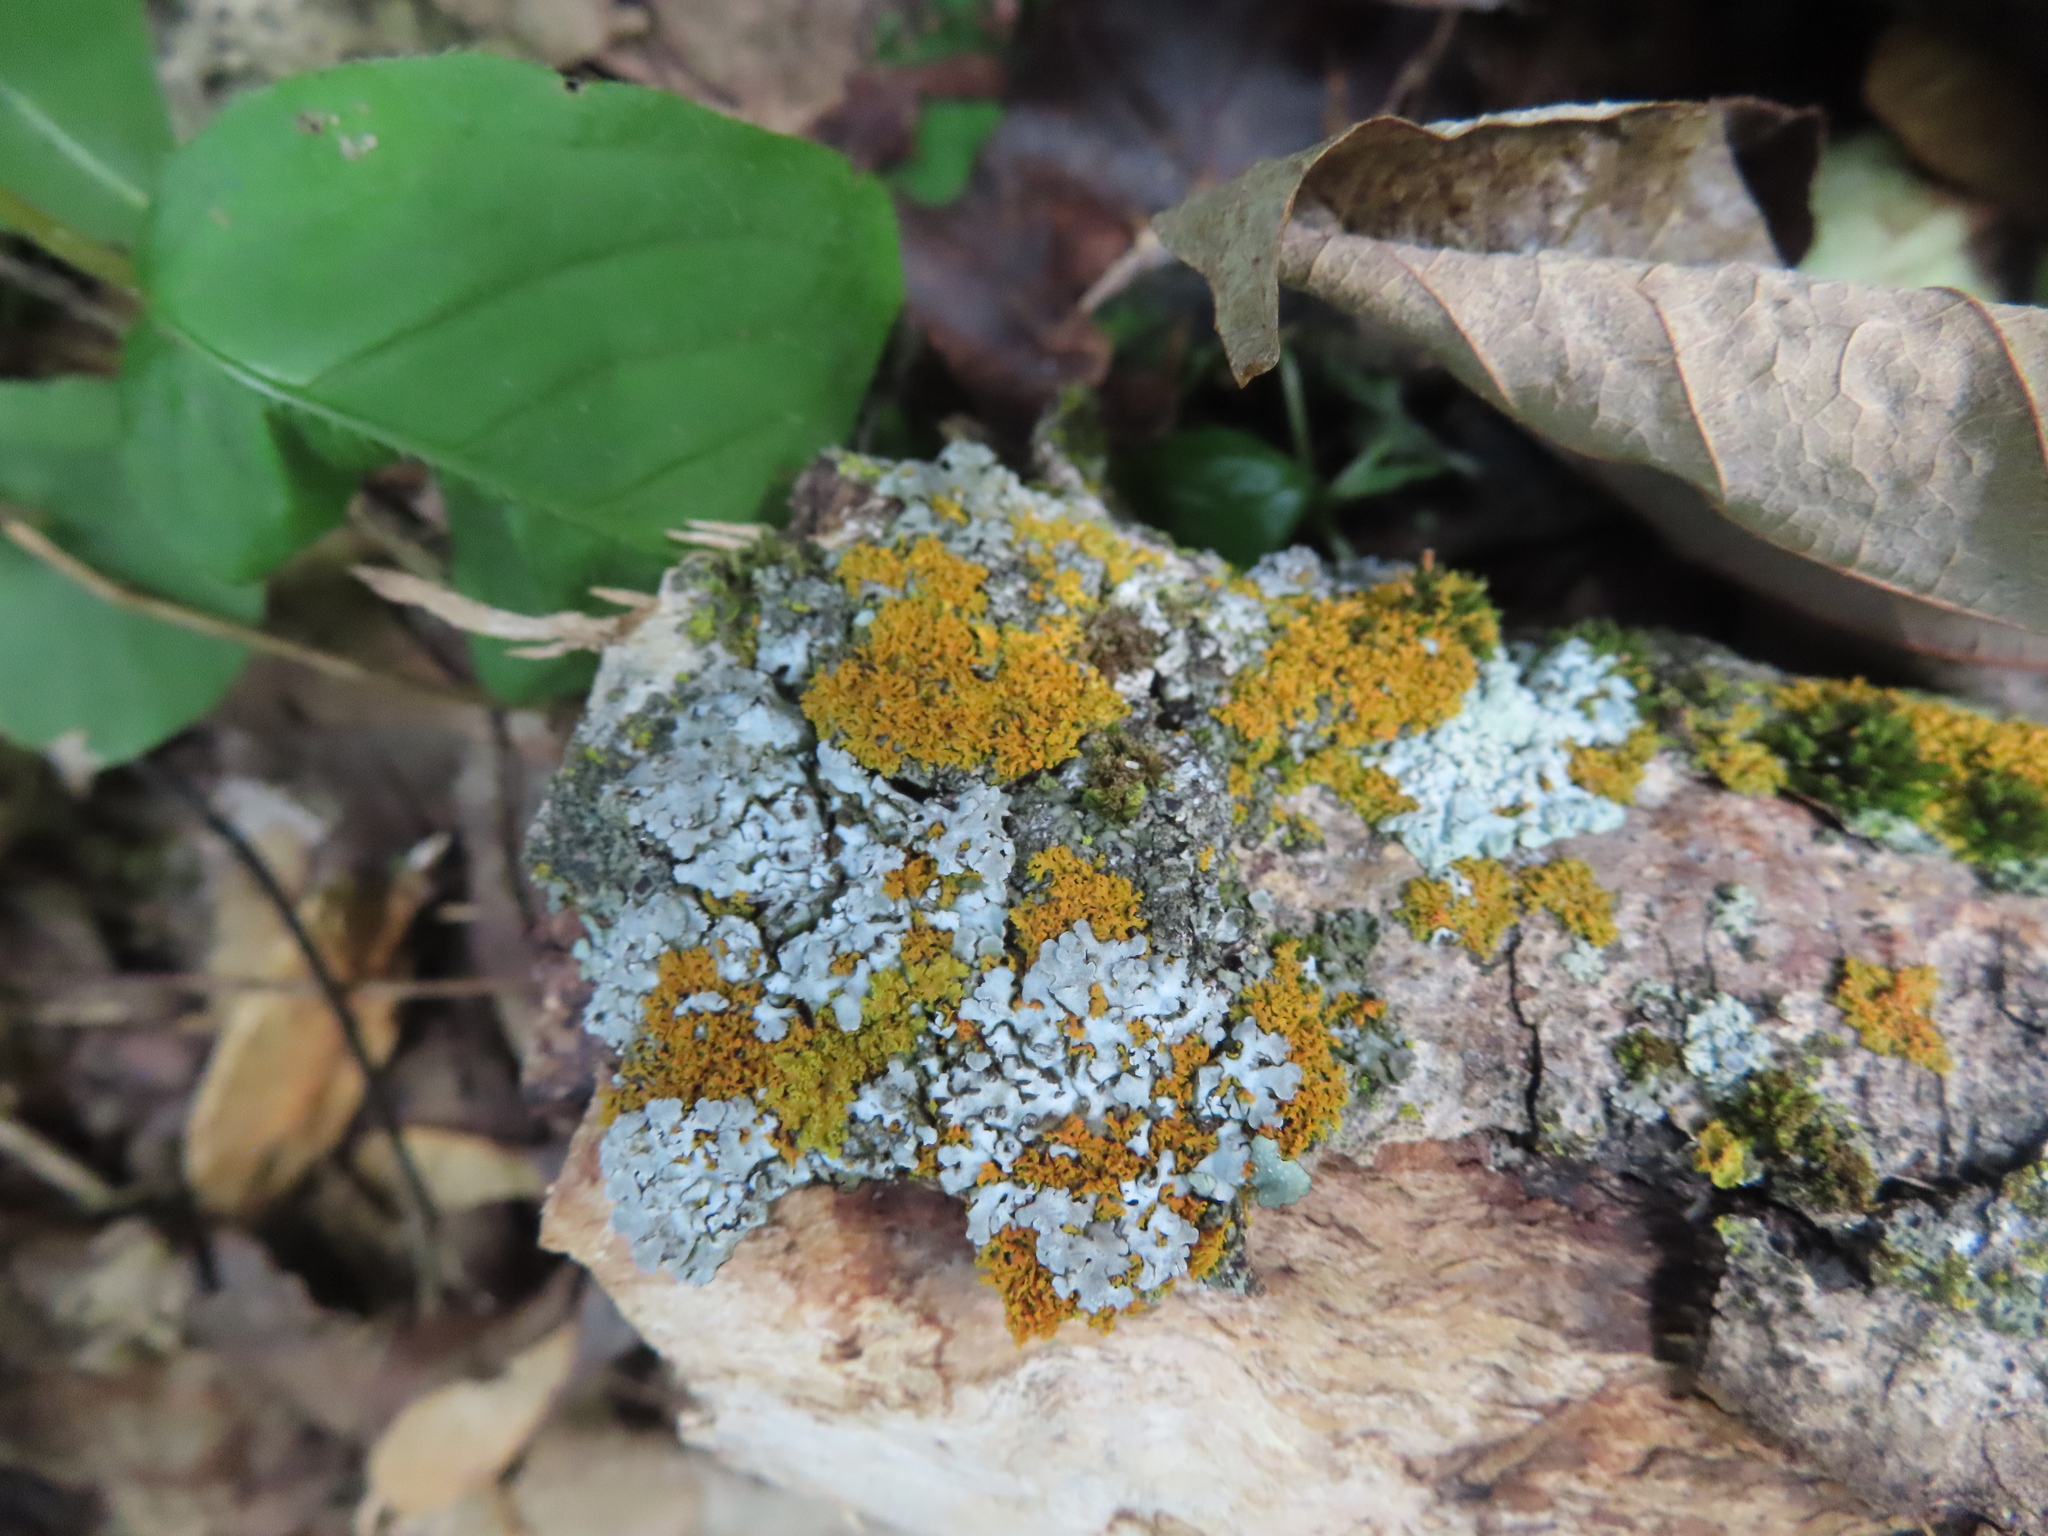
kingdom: Fungi
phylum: Ascomycota
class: Lecanoromycetes
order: Teloschistales
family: Teloschistaceae
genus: Oxneria
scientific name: Oxneria fallax
